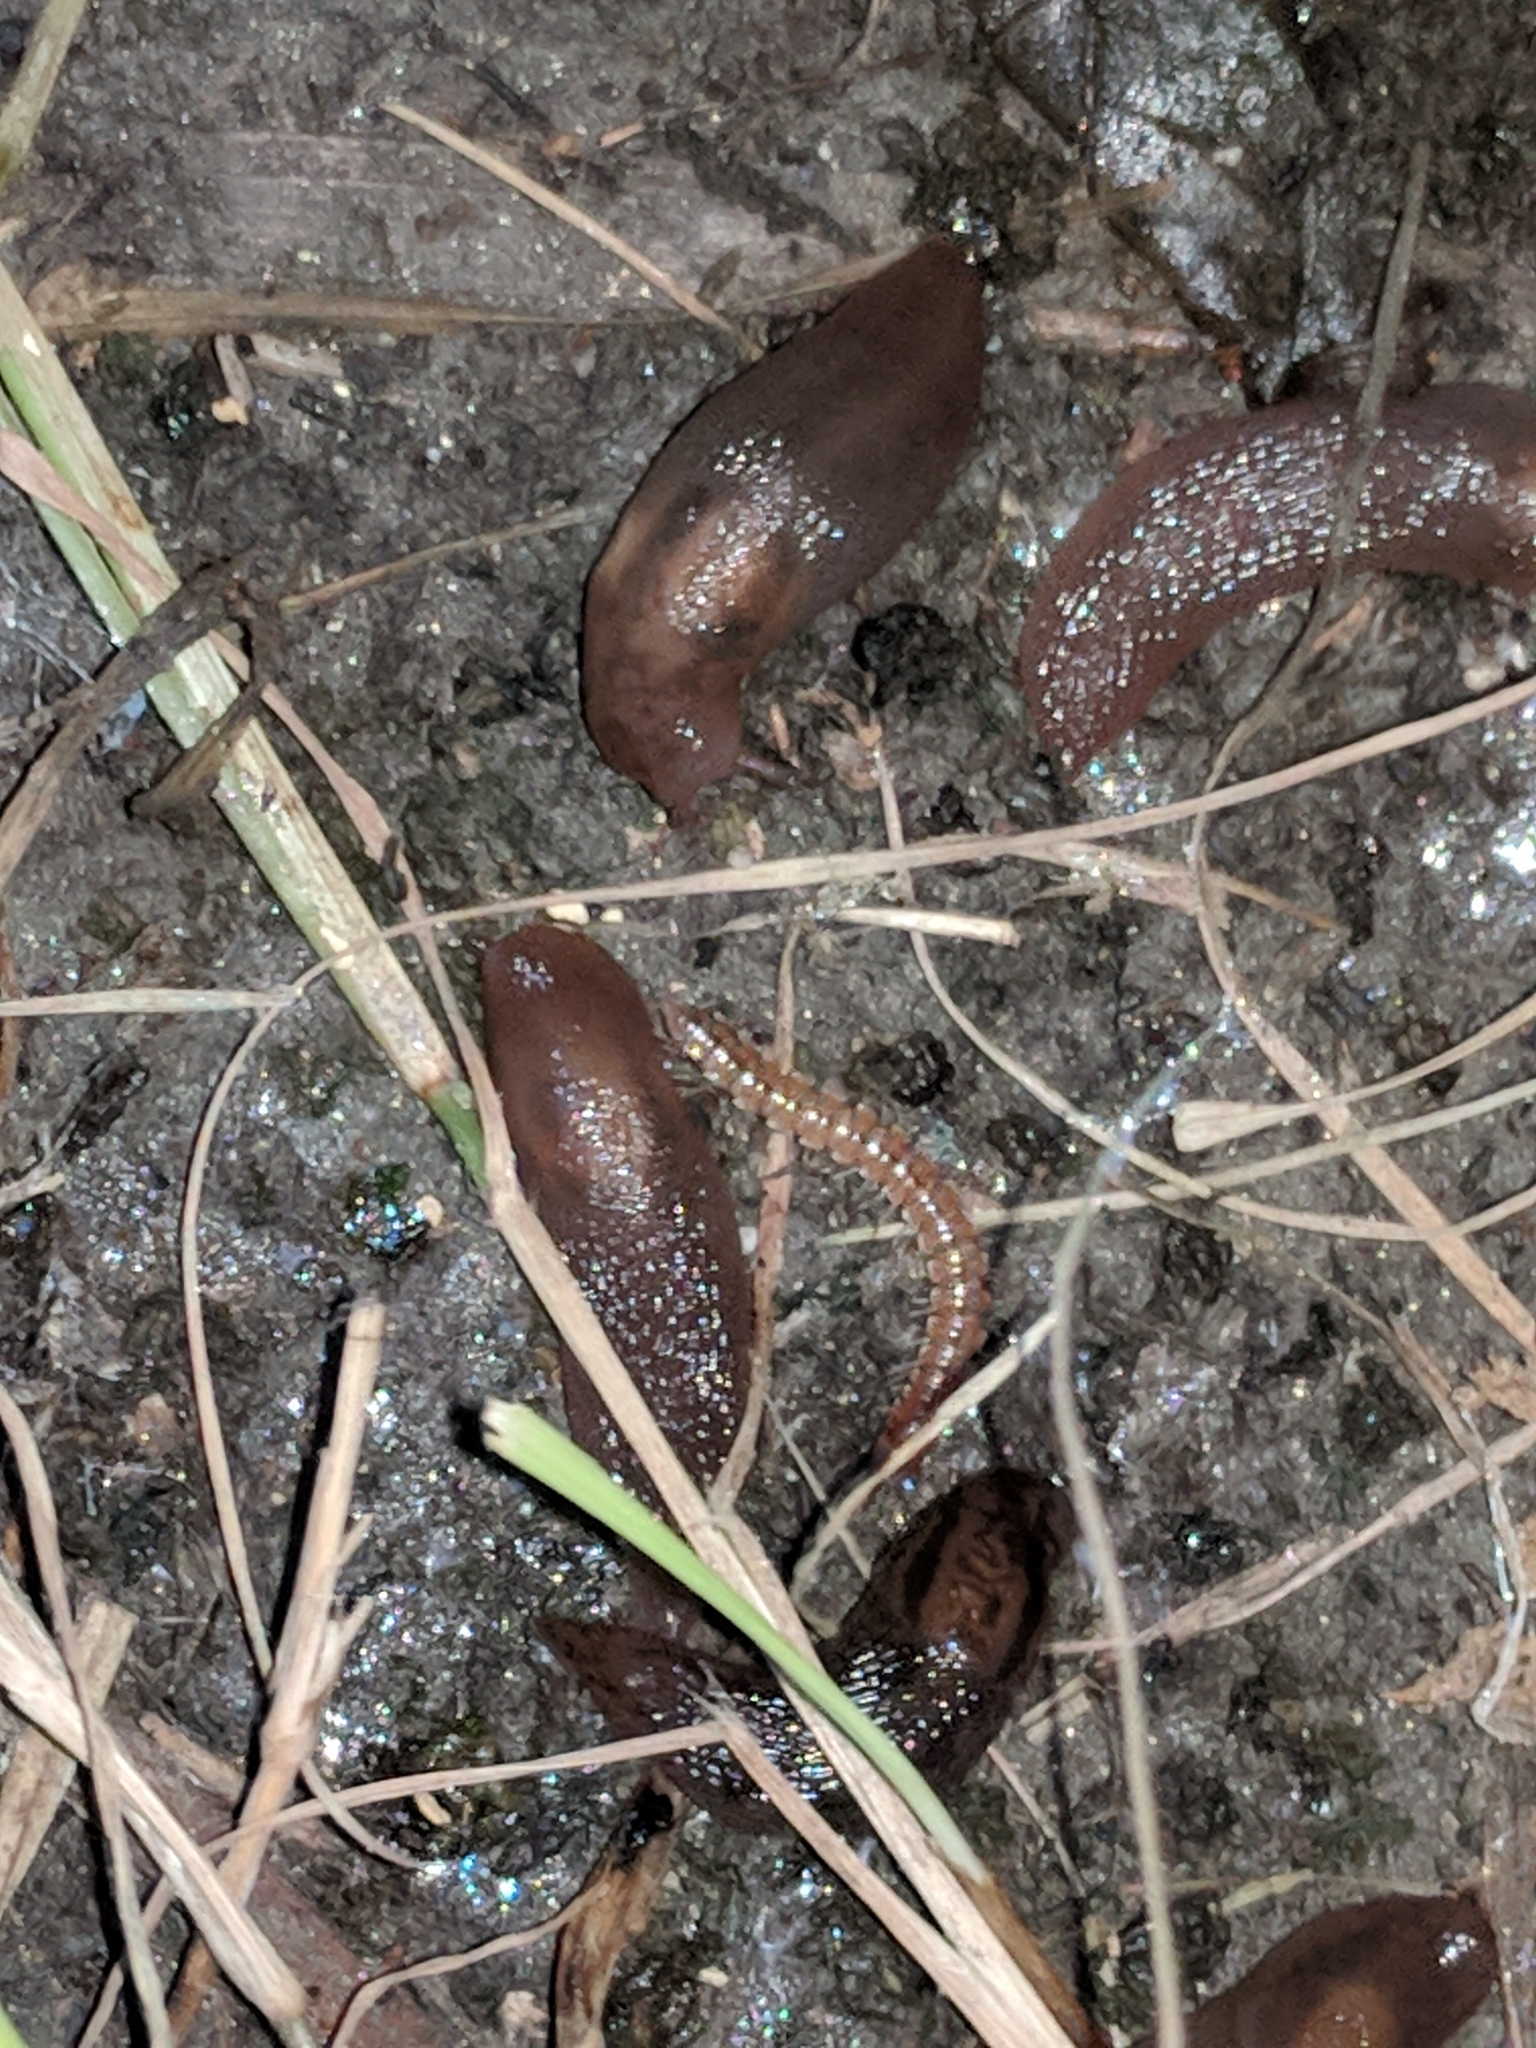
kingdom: Animalia
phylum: Arthropoda
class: Diplopoda
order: Polydesmida
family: Paradoxosomatidae
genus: Oxidus
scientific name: Oxidus gracilis
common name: Greenhouse millipede
